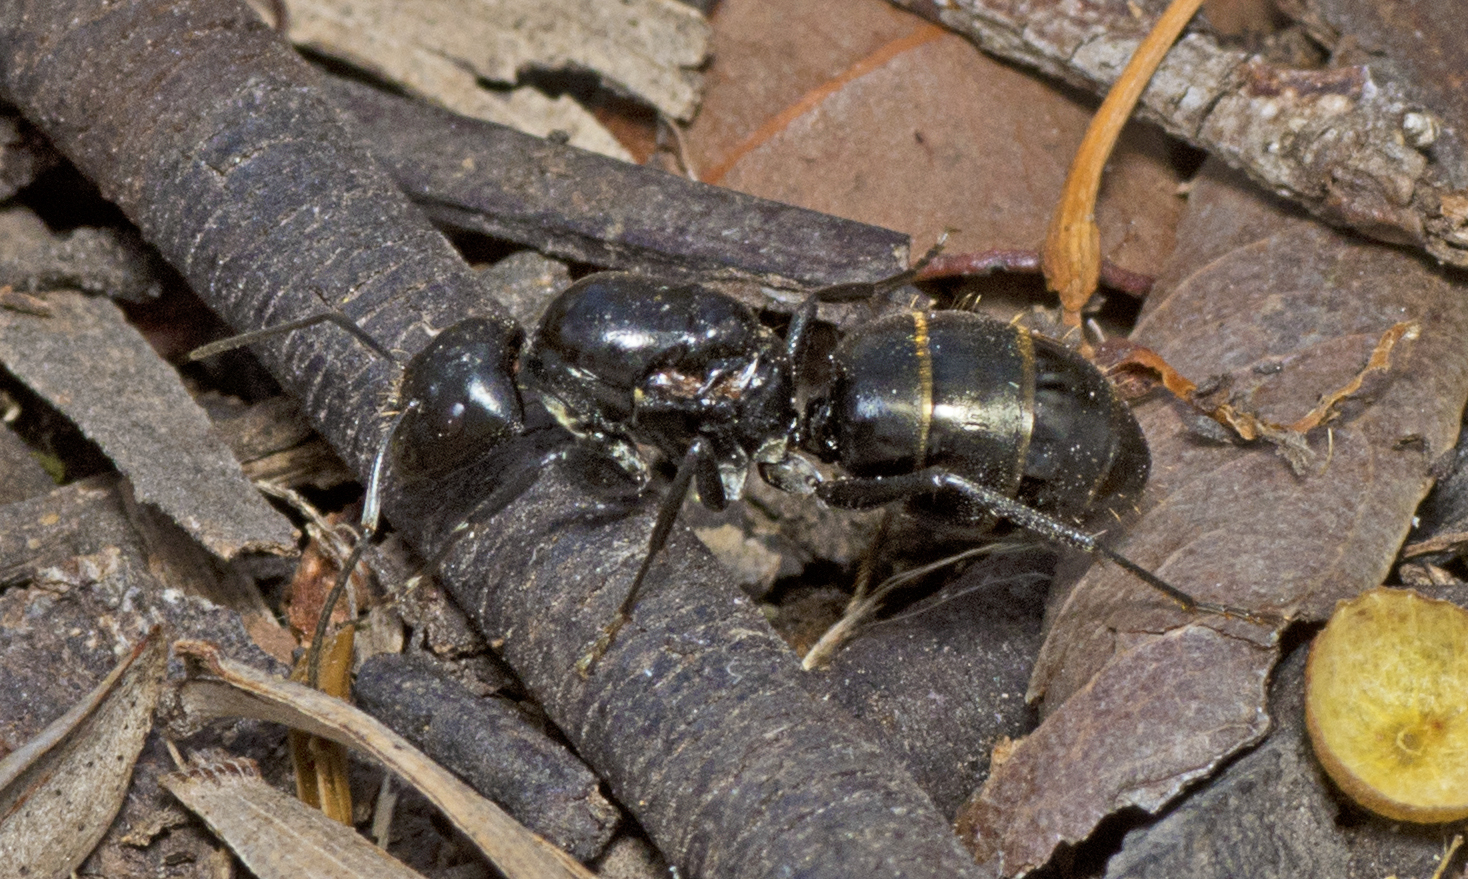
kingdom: Animalia
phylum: Arthropoda
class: Insecta
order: Hymenoptera
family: Formicidae
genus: Camponotus
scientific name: Camponotus aeneopilosus
